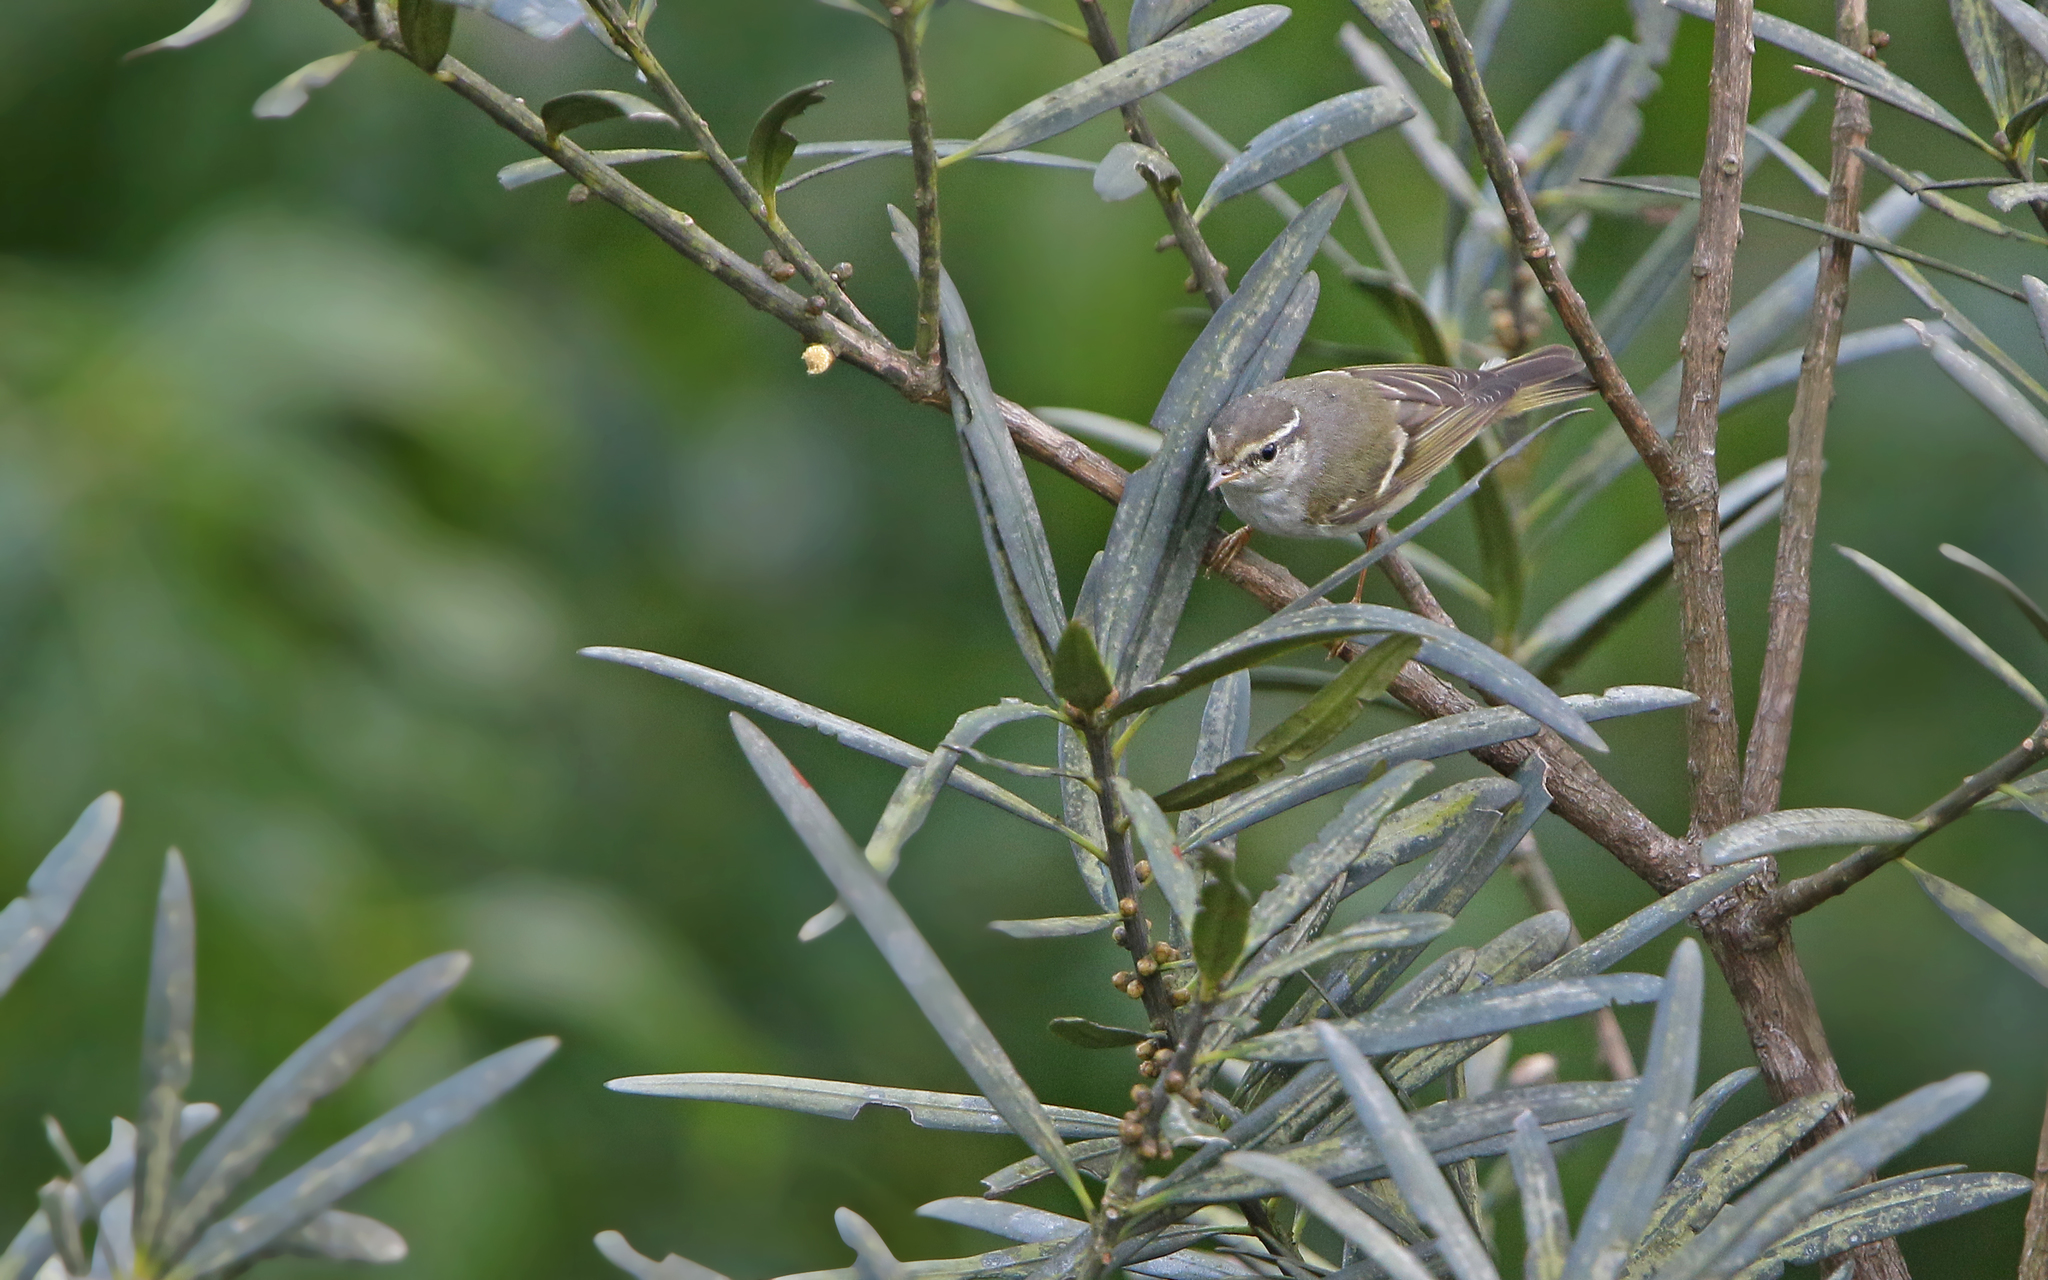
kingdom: Animalia
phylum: Chordata
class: Aves
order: Passeriformes
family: Phylloscopidae
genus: Phylloscopus
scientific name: Phylloscopus inornatus
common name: Yellow-browed warbler
